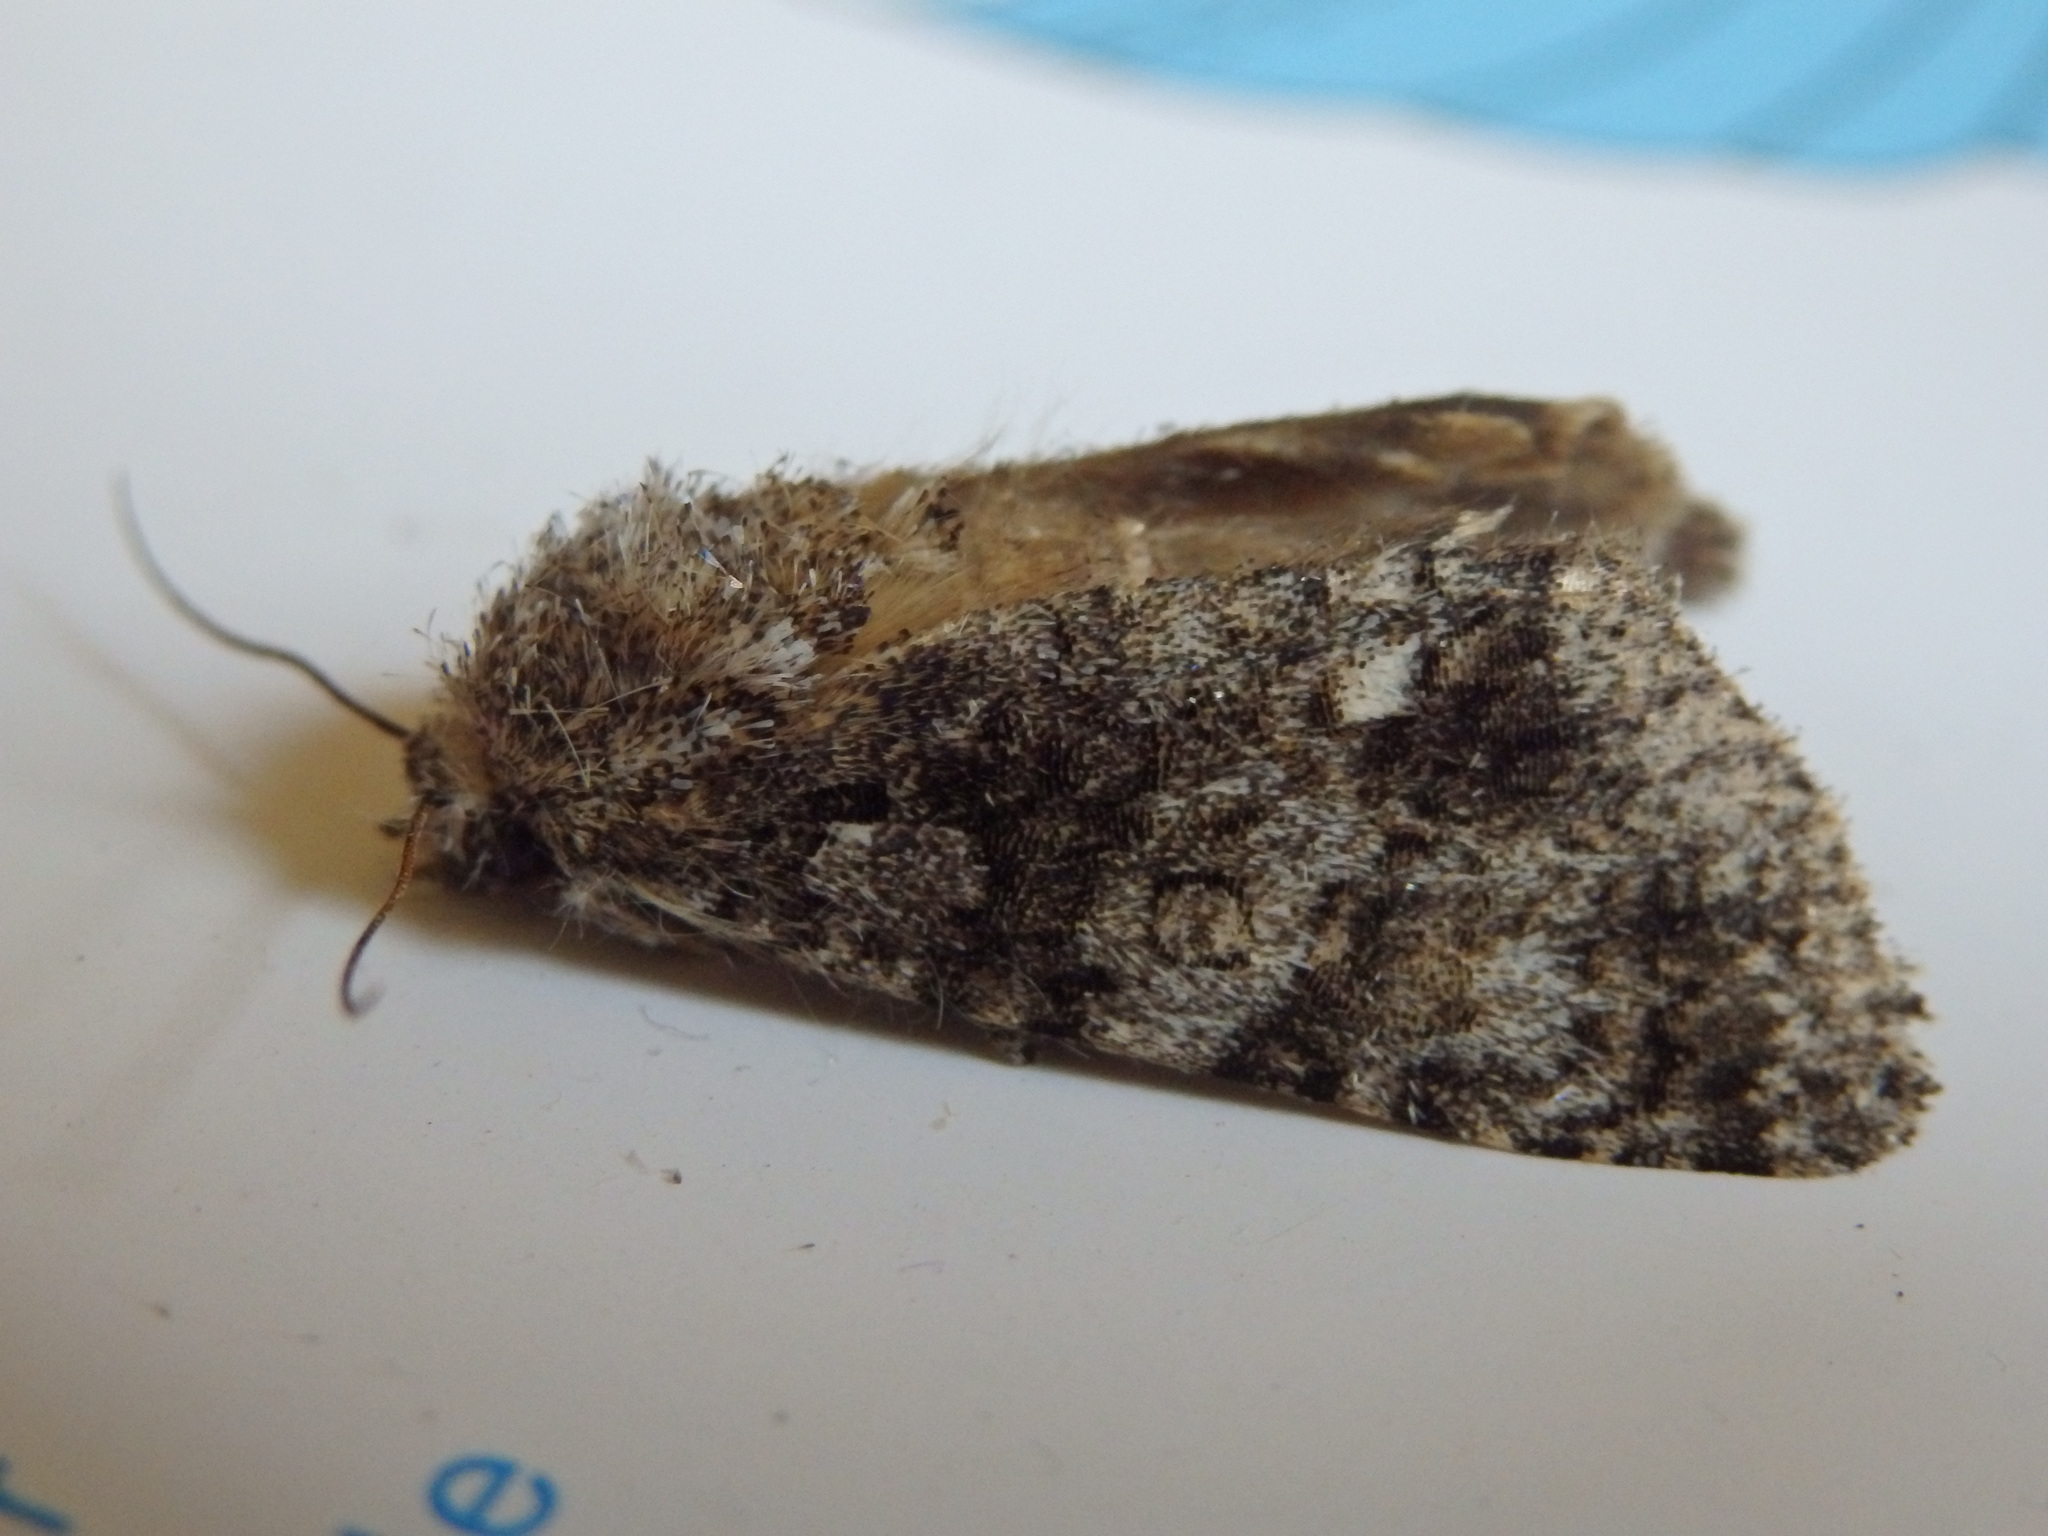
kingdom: Animalia
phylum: Arthropoda
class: Insecta
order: Lepidoptera
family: Noctuidae
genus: Acronicta
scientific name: Acronicta rumicis
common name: Knot grass
